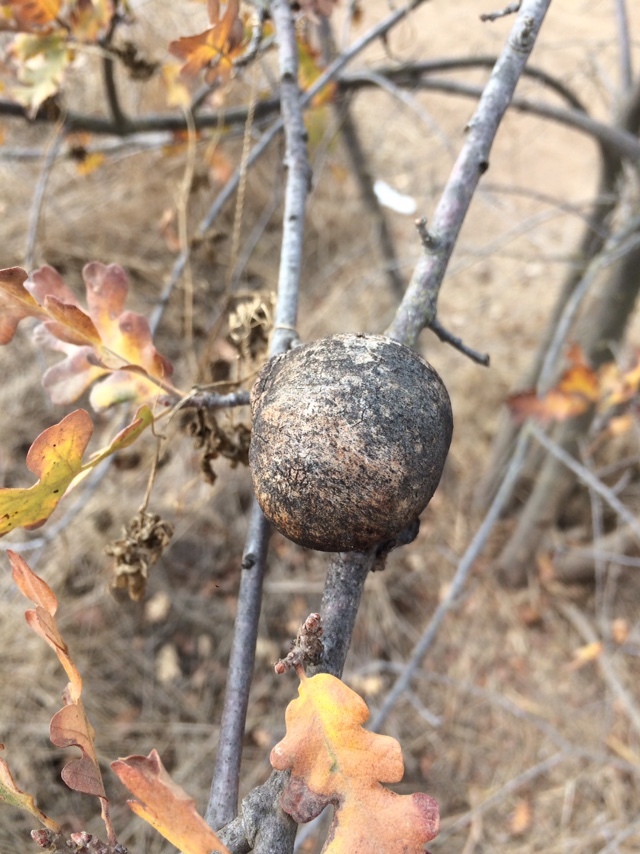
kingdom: Animalia
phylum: Arthropoda
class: Insecta
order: Hymenoptera
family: Cynipidae
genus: Andricus
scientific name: Andricus quercuscalifornicus
